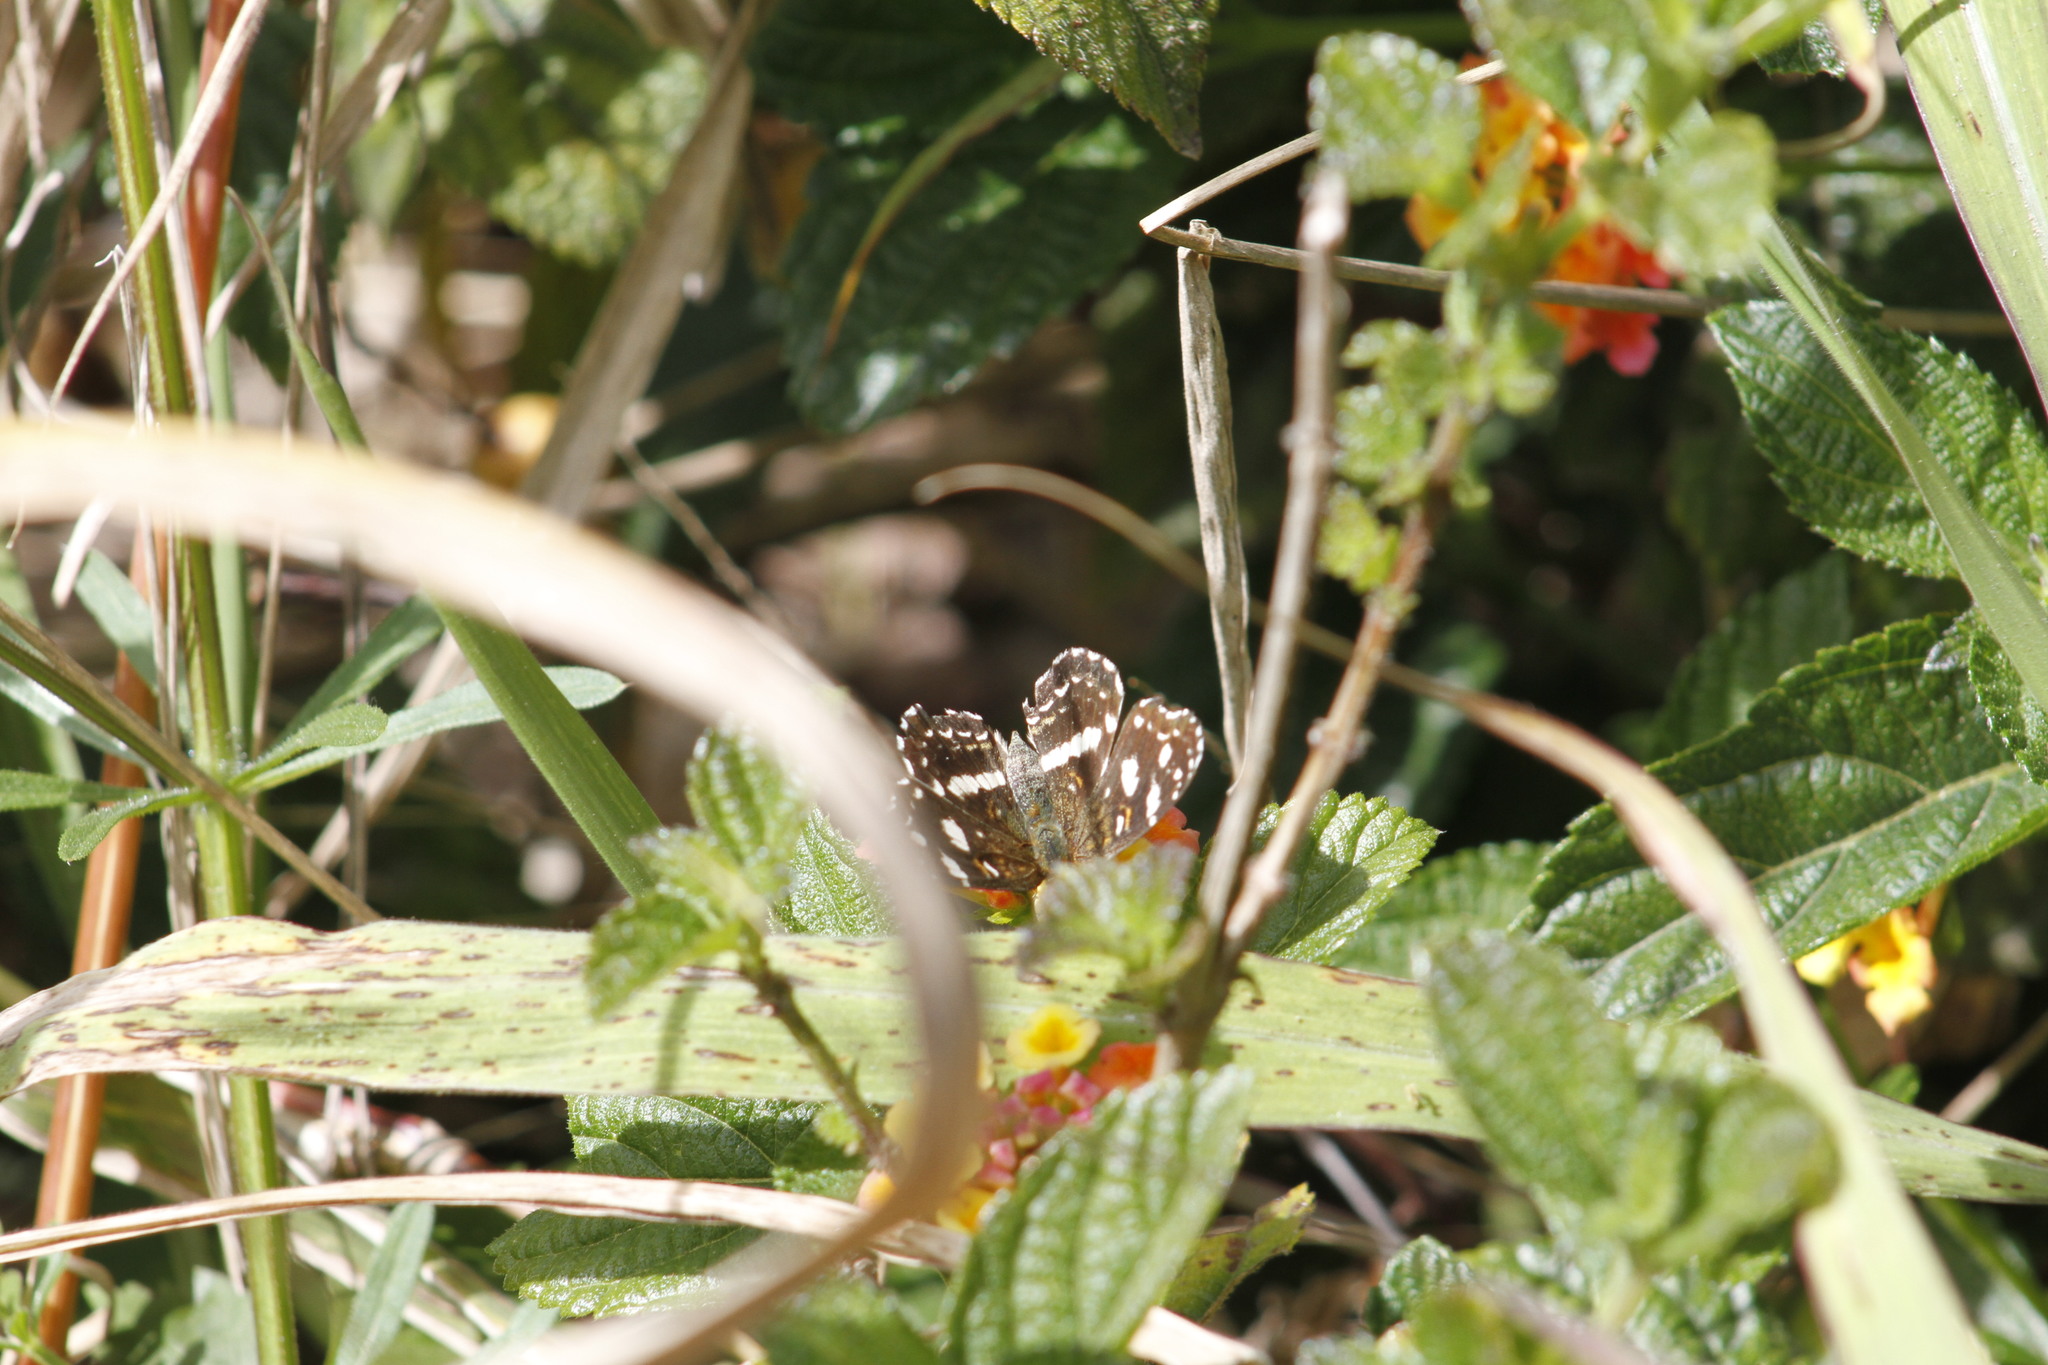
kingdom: Animalia
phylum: Arthropoda
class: Insecta
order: Lepidoptera
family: Nymphalidae
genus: Ortilia
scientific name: Ortilia ithra
